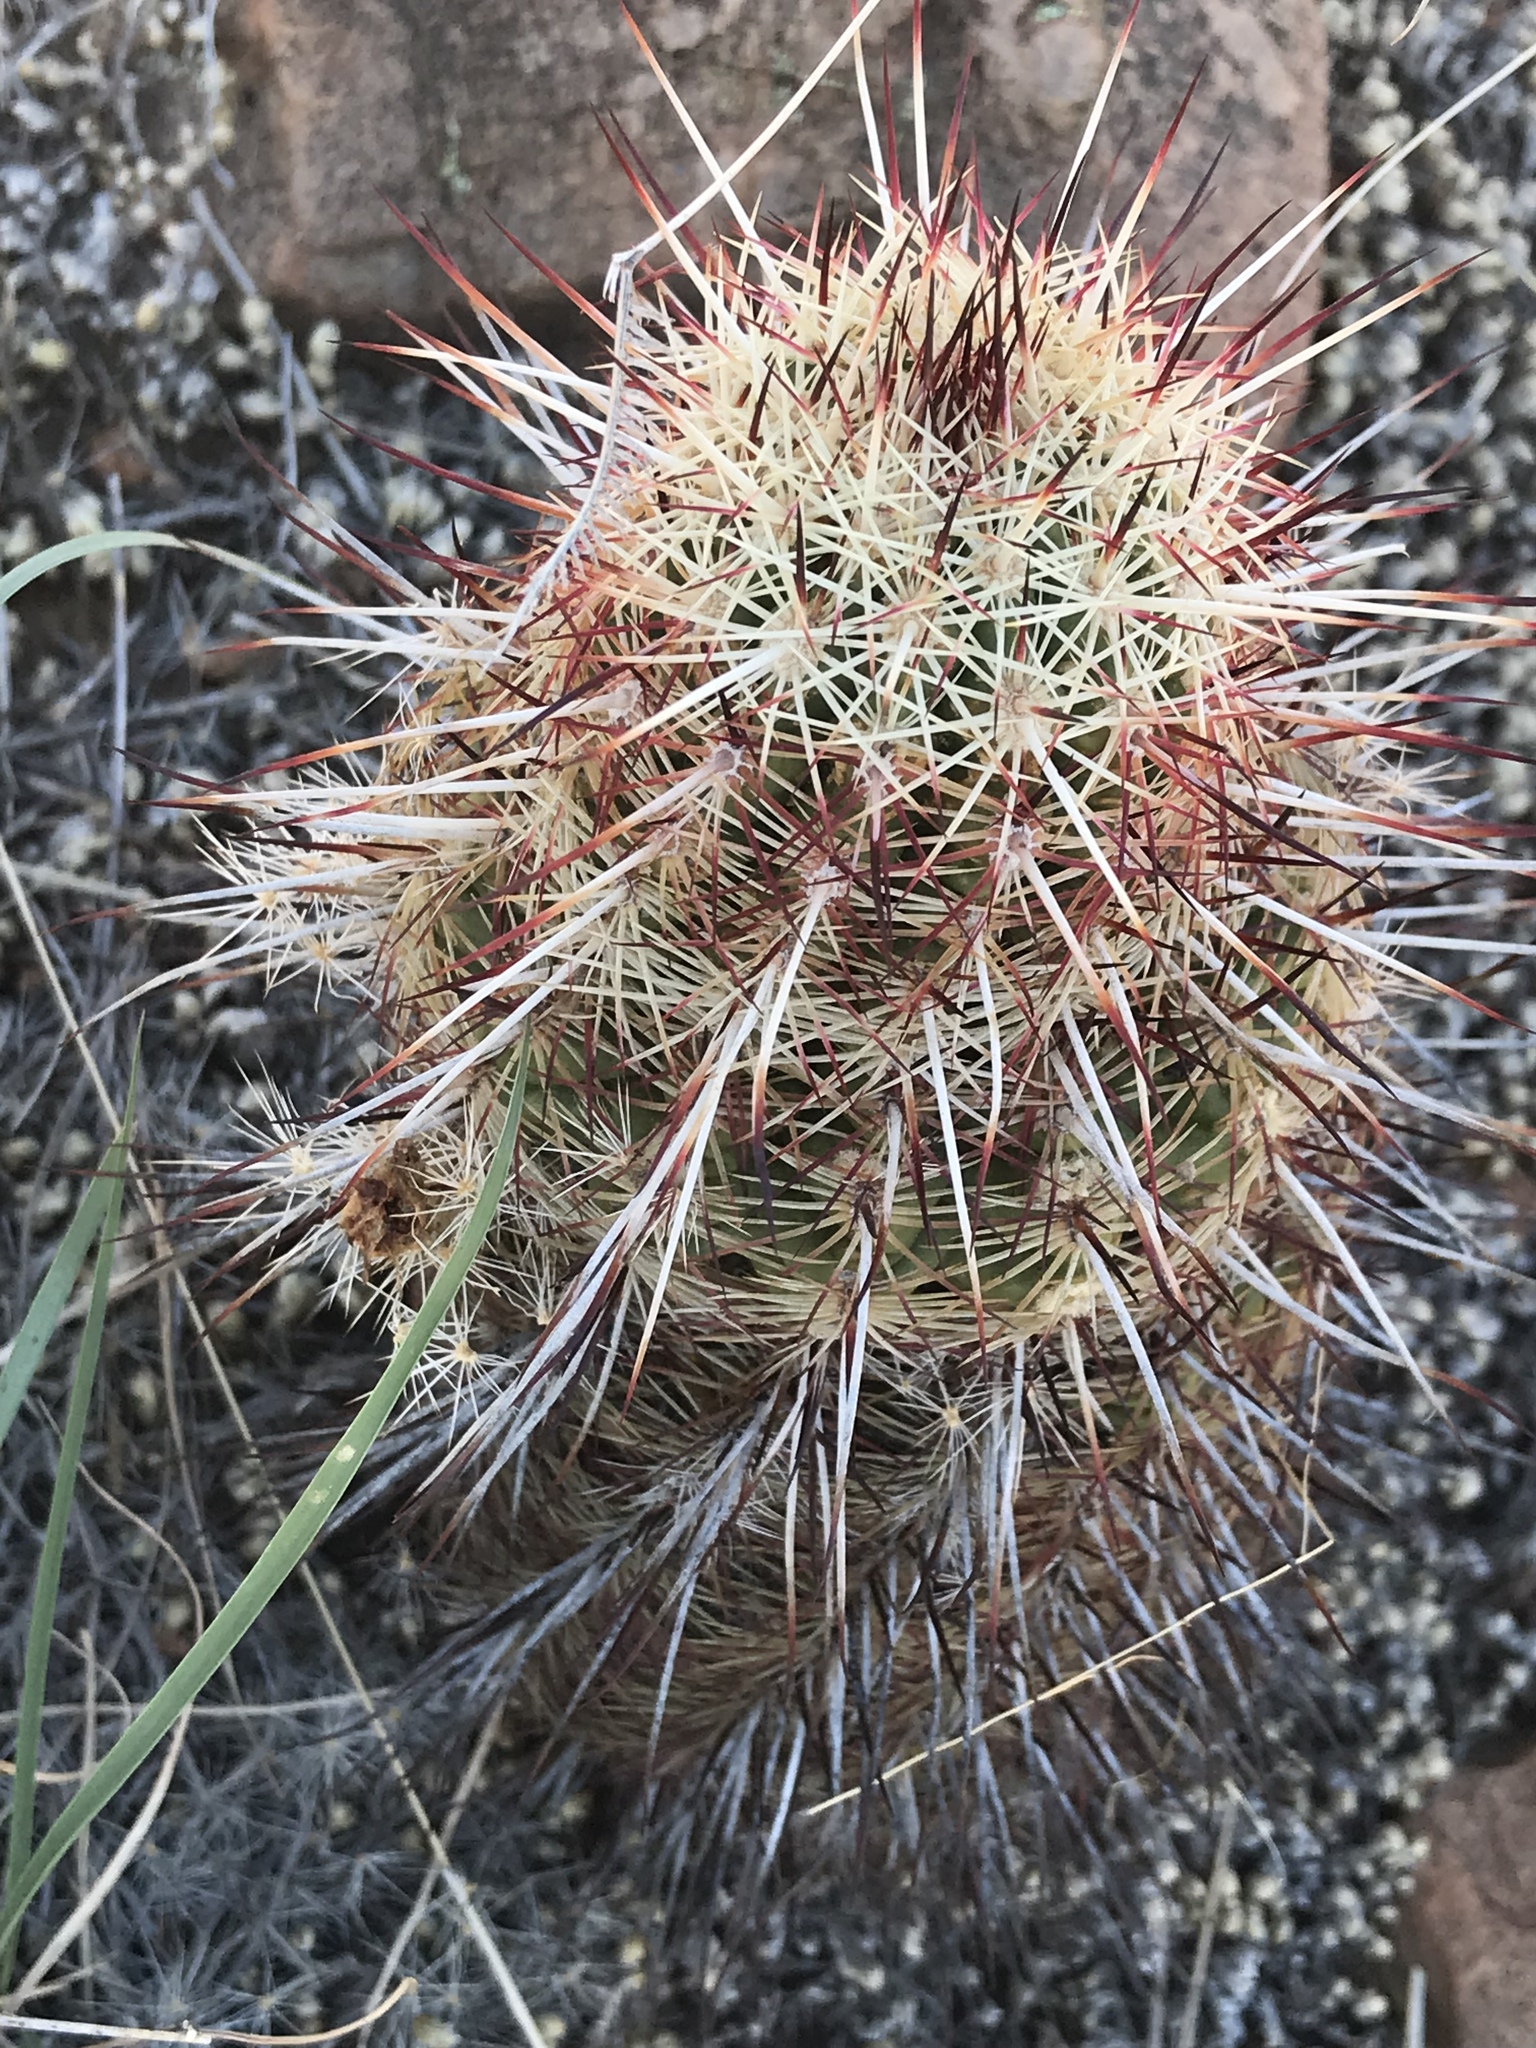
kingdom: Plantae
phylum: Tracheophyta
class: Magnoliopsida
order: Caryophyllales
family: Cactaceae
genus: Echinocereus
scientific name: Echinocereus viridiflorus
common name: Nylon hedgehog cactus
